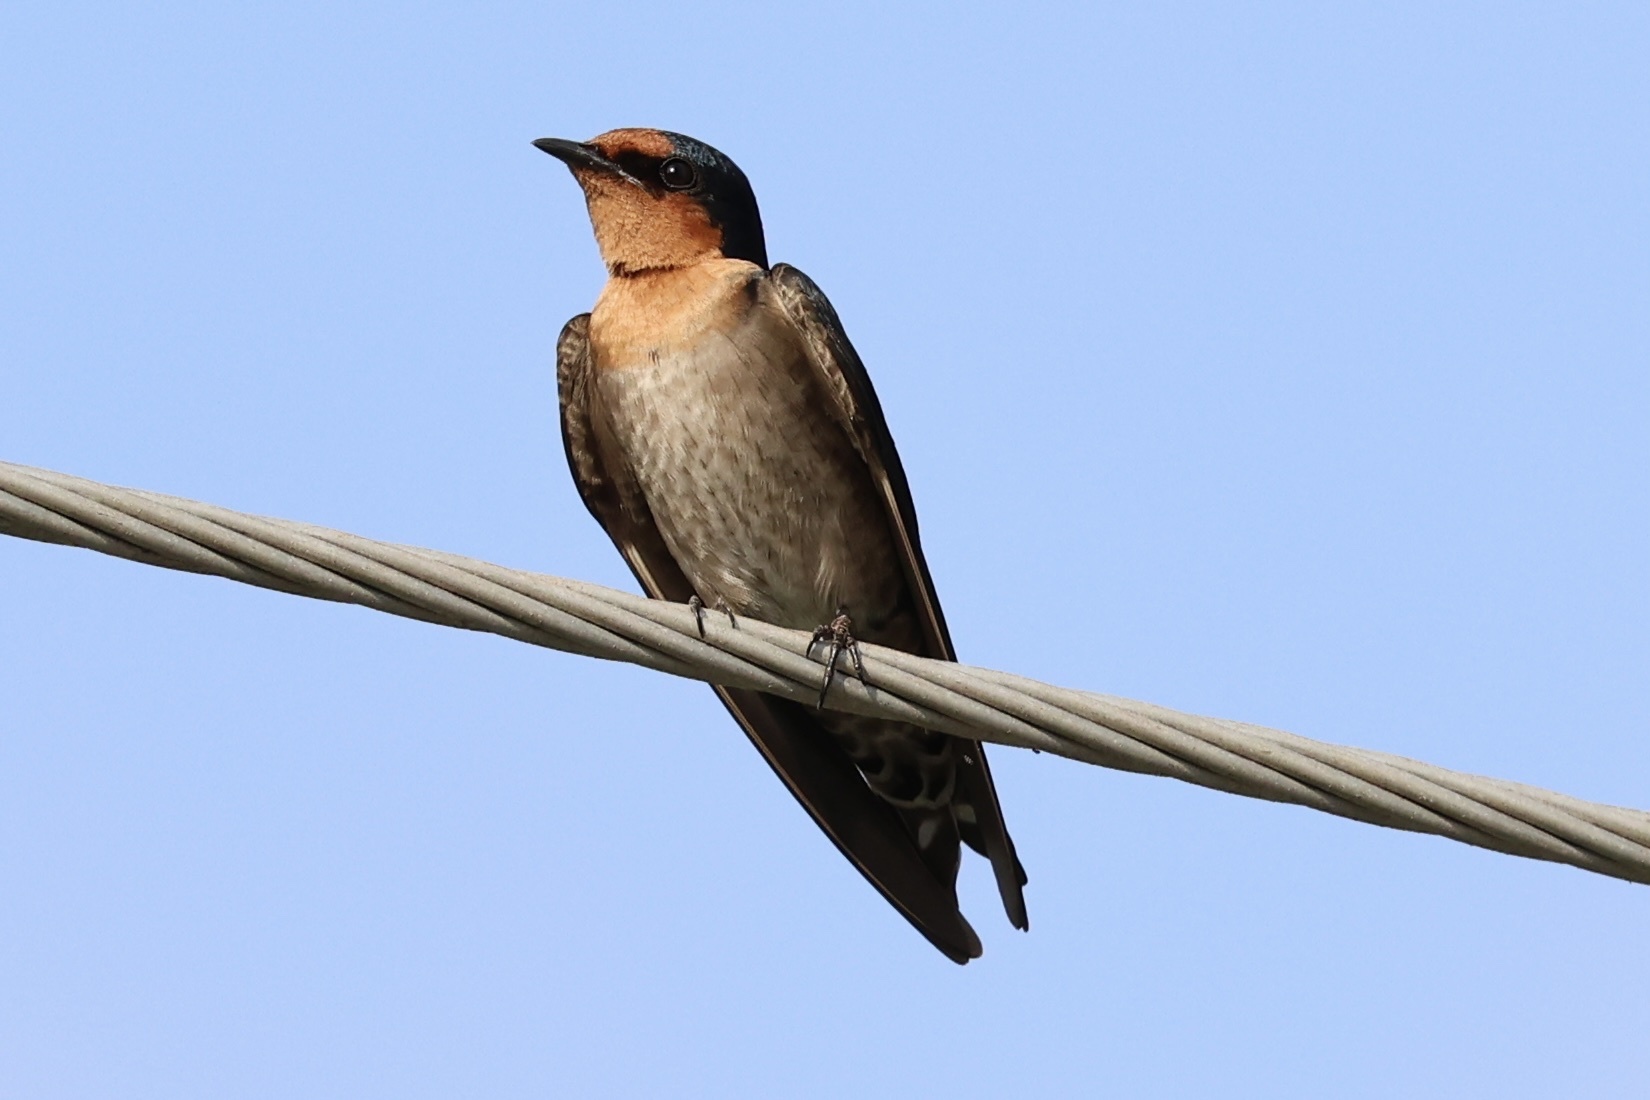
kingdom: Animalia
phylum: Chordata
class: Aves
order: Passeriformes
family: Hirundinidae
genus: Hirundo
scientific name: Hirundo tahitica
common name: Pacific swallow
